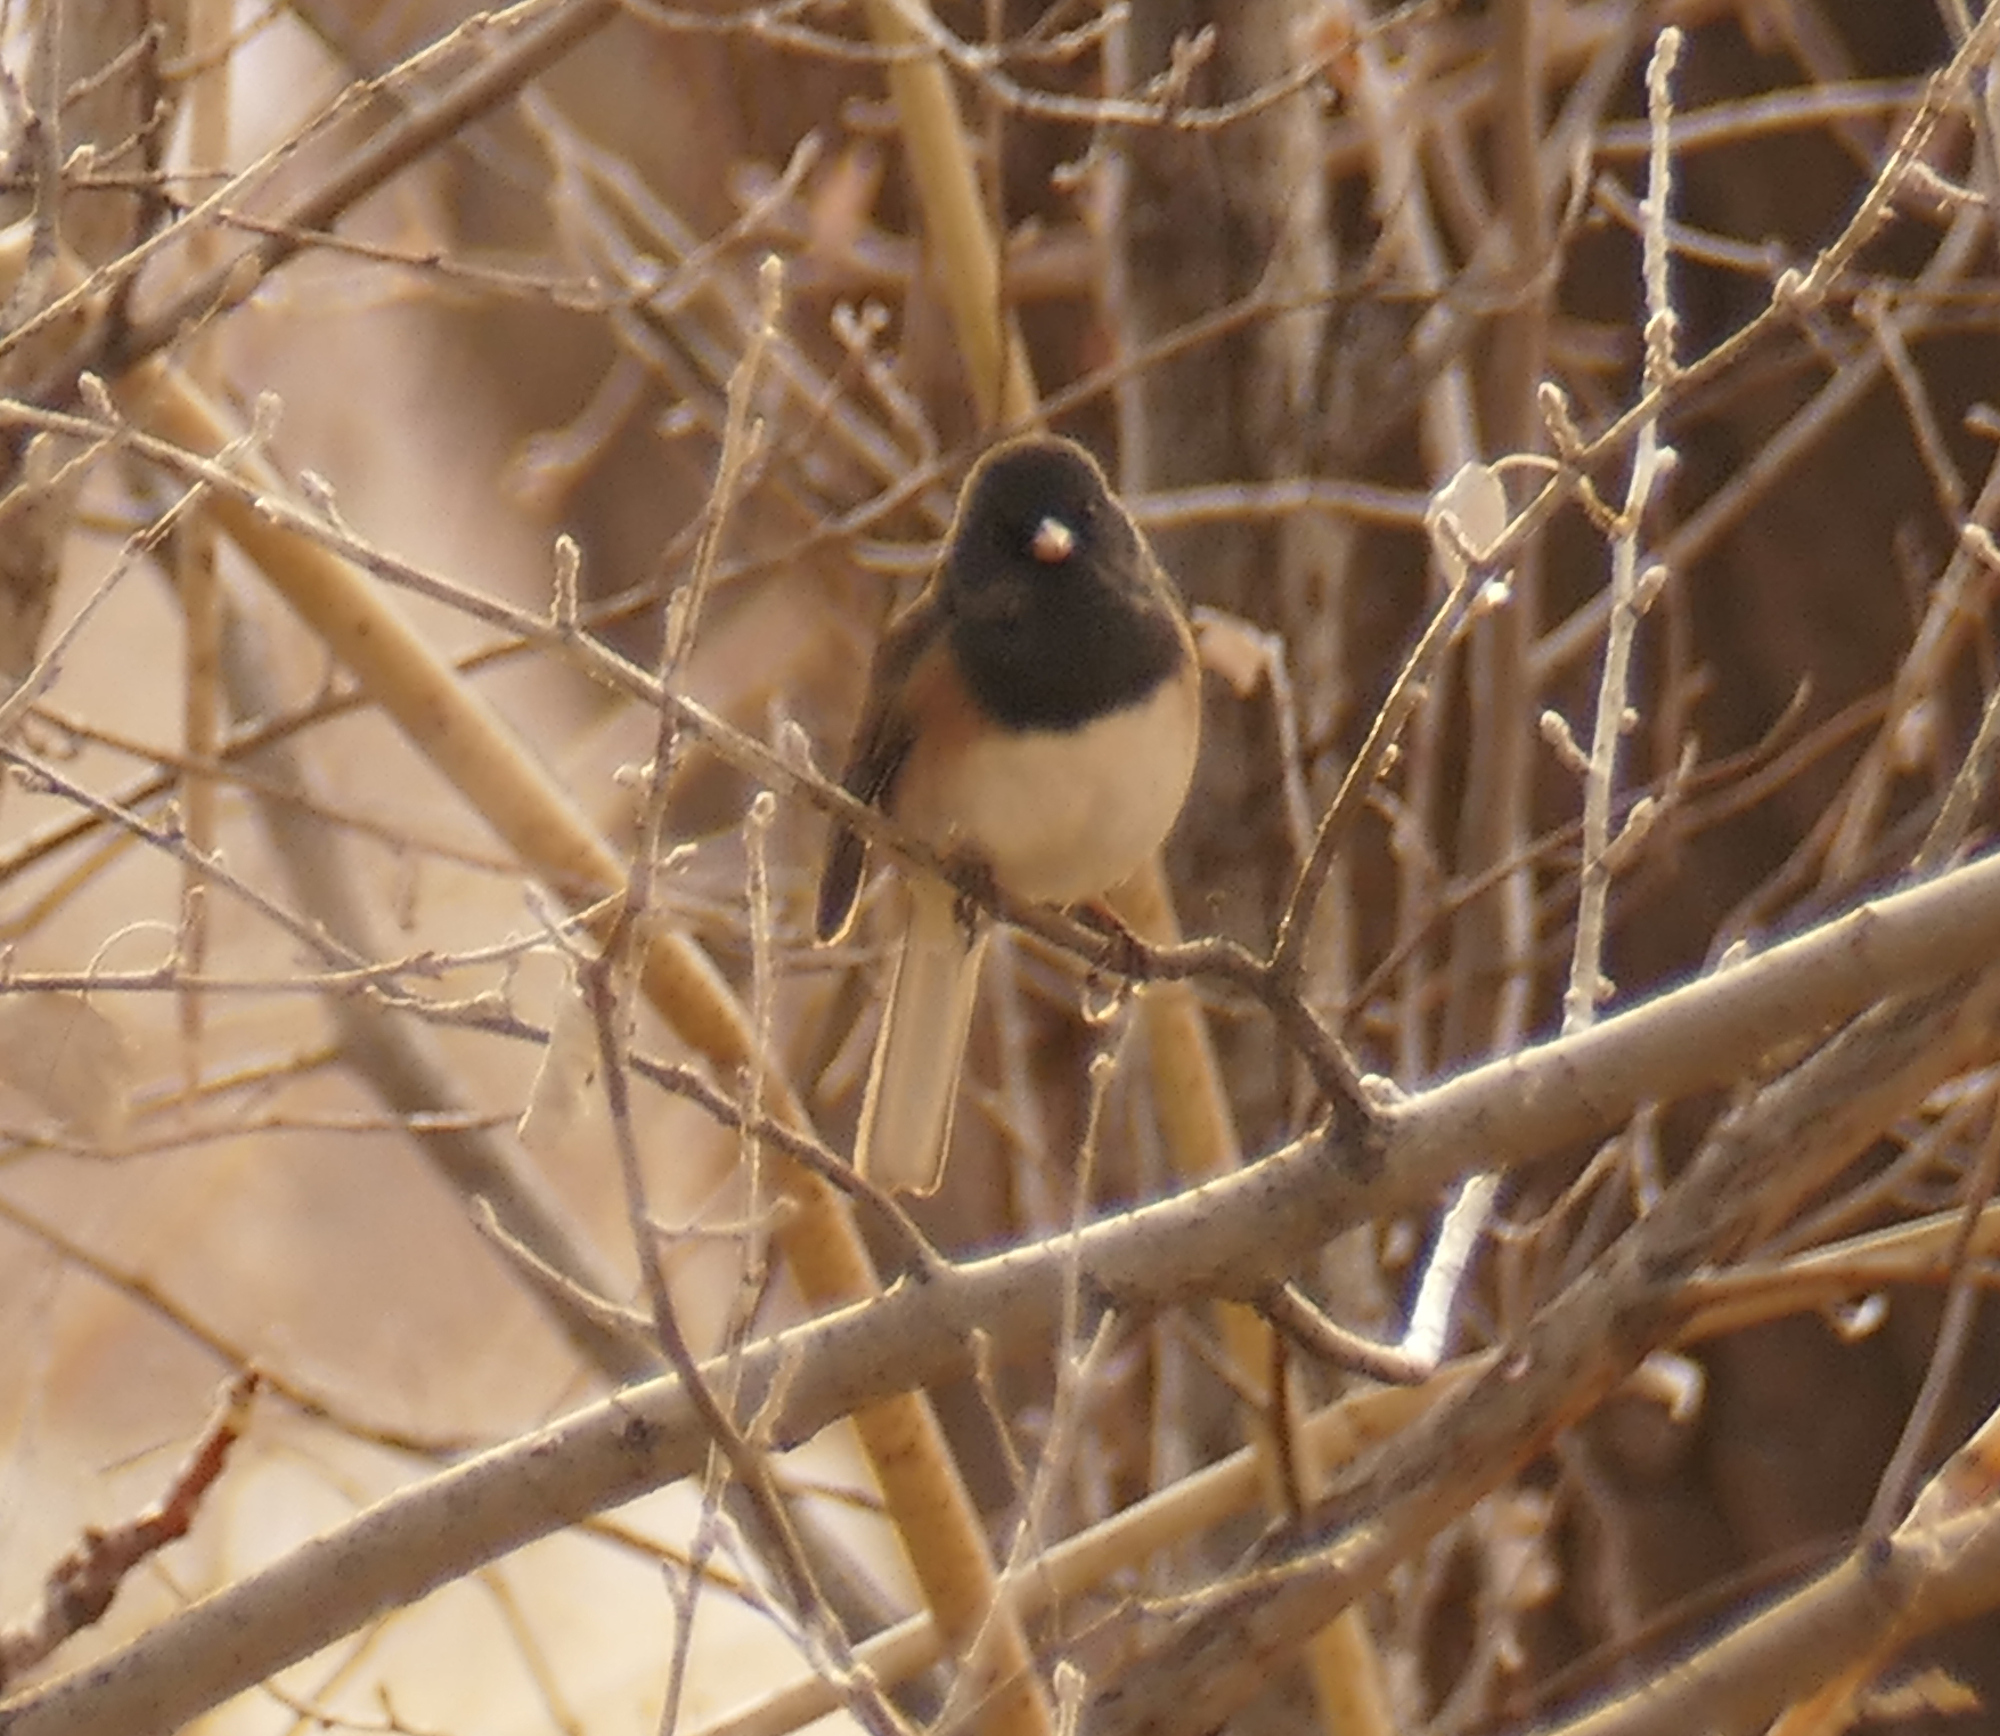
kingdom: Animalia
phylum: Chordata
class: Aves
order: Passeriformes
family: Passerellidae
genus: Junco
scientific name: Junco hyemalis
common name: Dark-eyed junco
